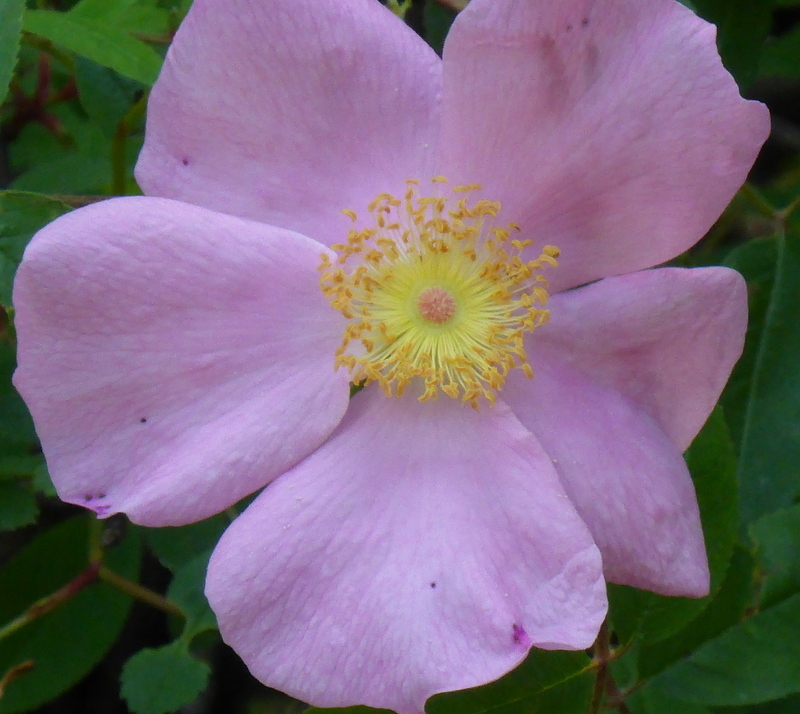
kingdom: Plantae
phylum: Tracheophyta
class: Magnoliopsida
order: Rosales
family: Rosaceae
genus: Rosa
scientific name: Rosa palustris
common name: Swamp rose
